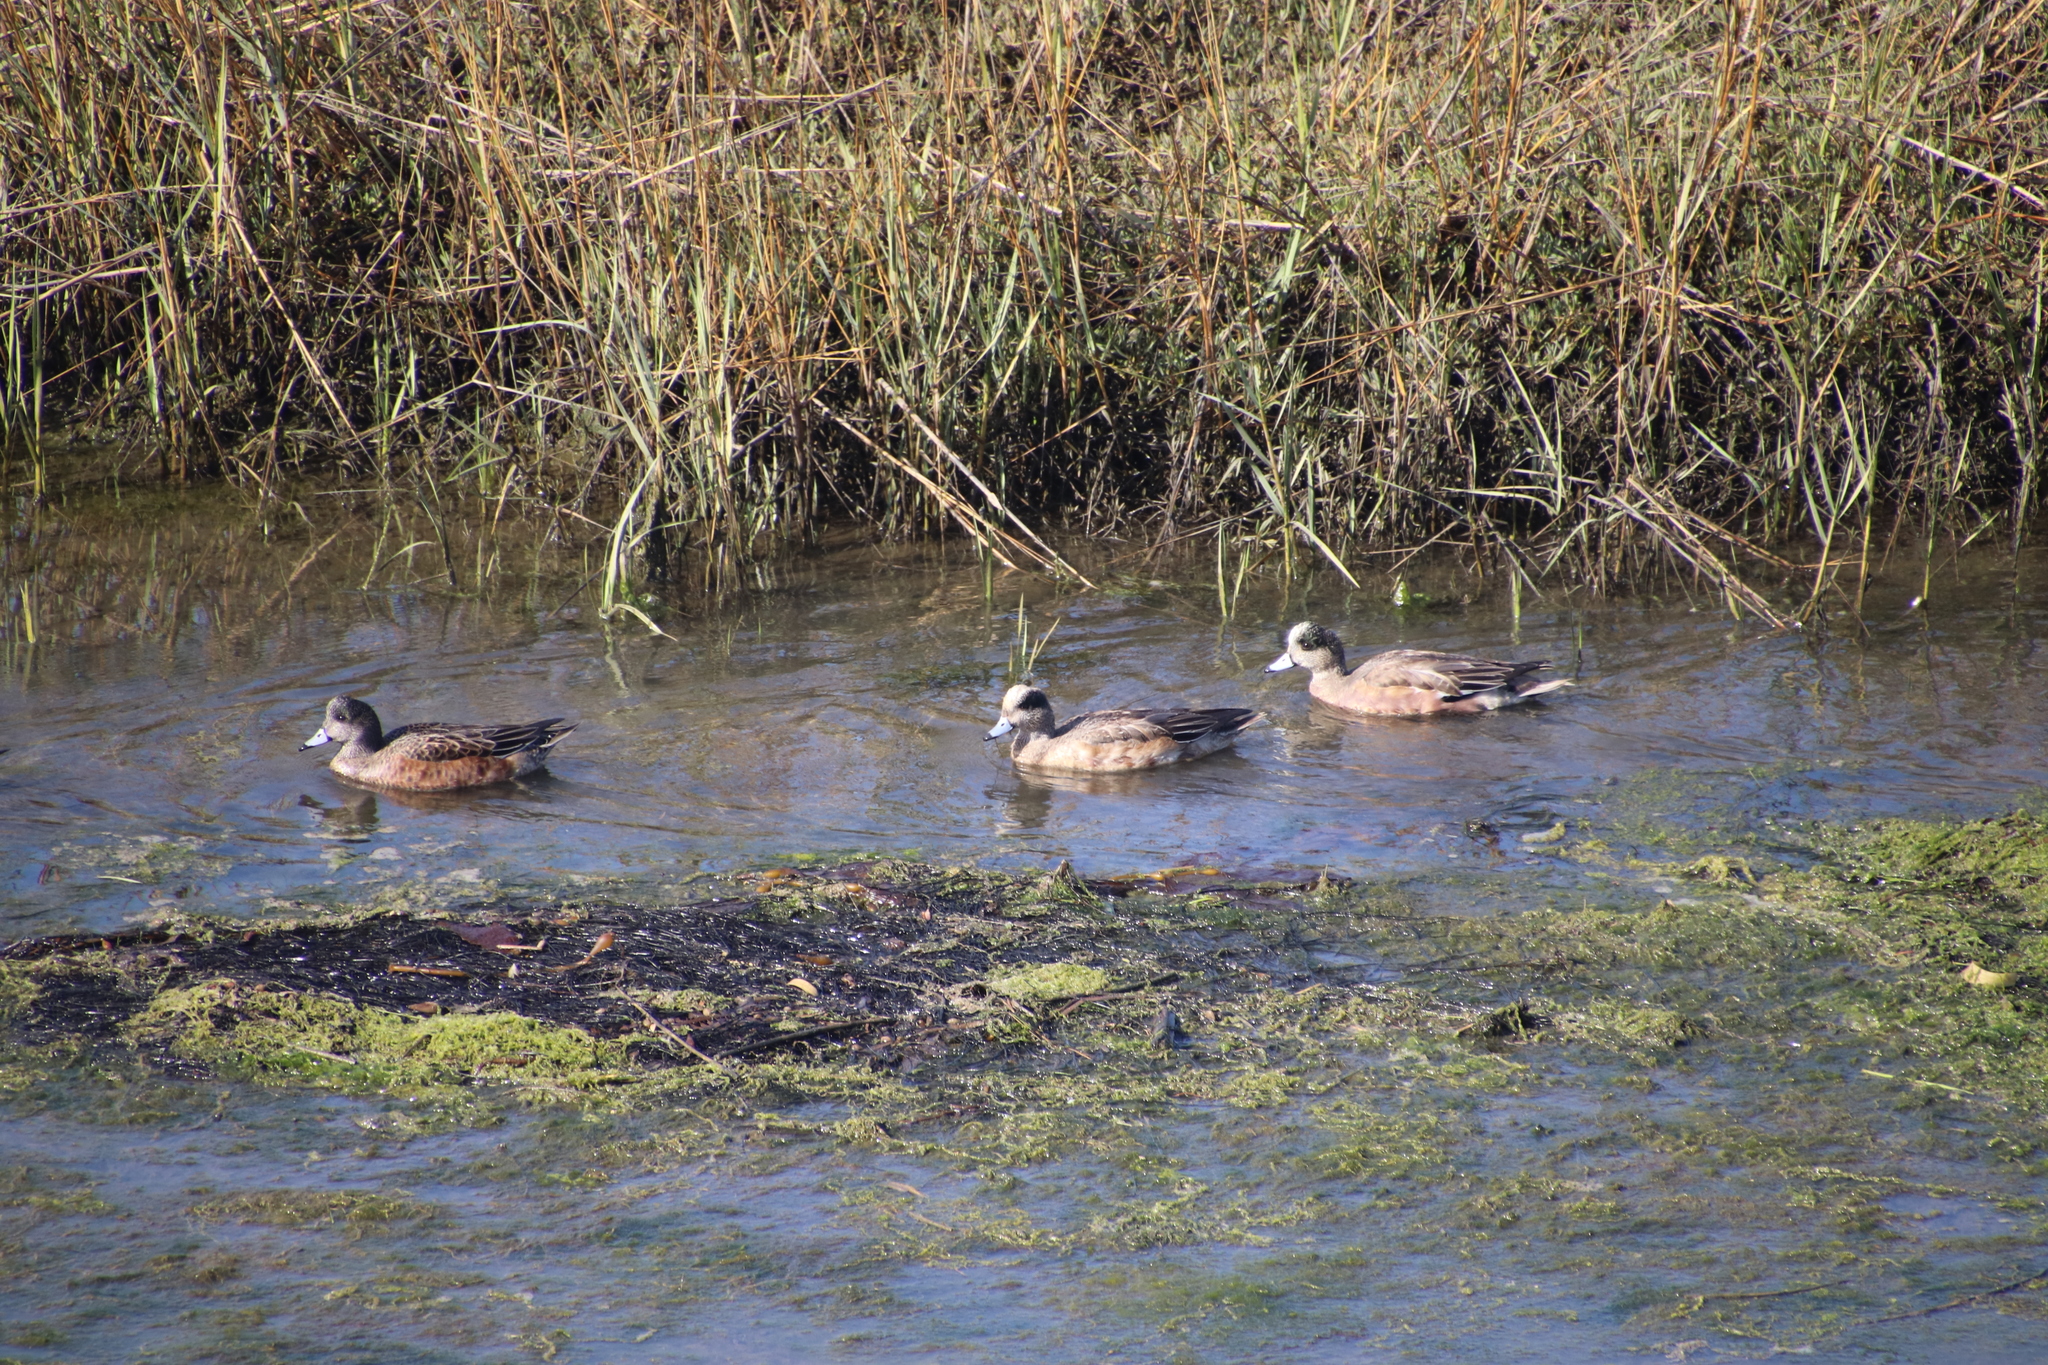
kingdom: Animalia
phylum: Chordata
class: Aves
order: Anseriformes
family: Anatidae
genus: Mareca
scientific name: Mareca americana
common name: American wigeon
